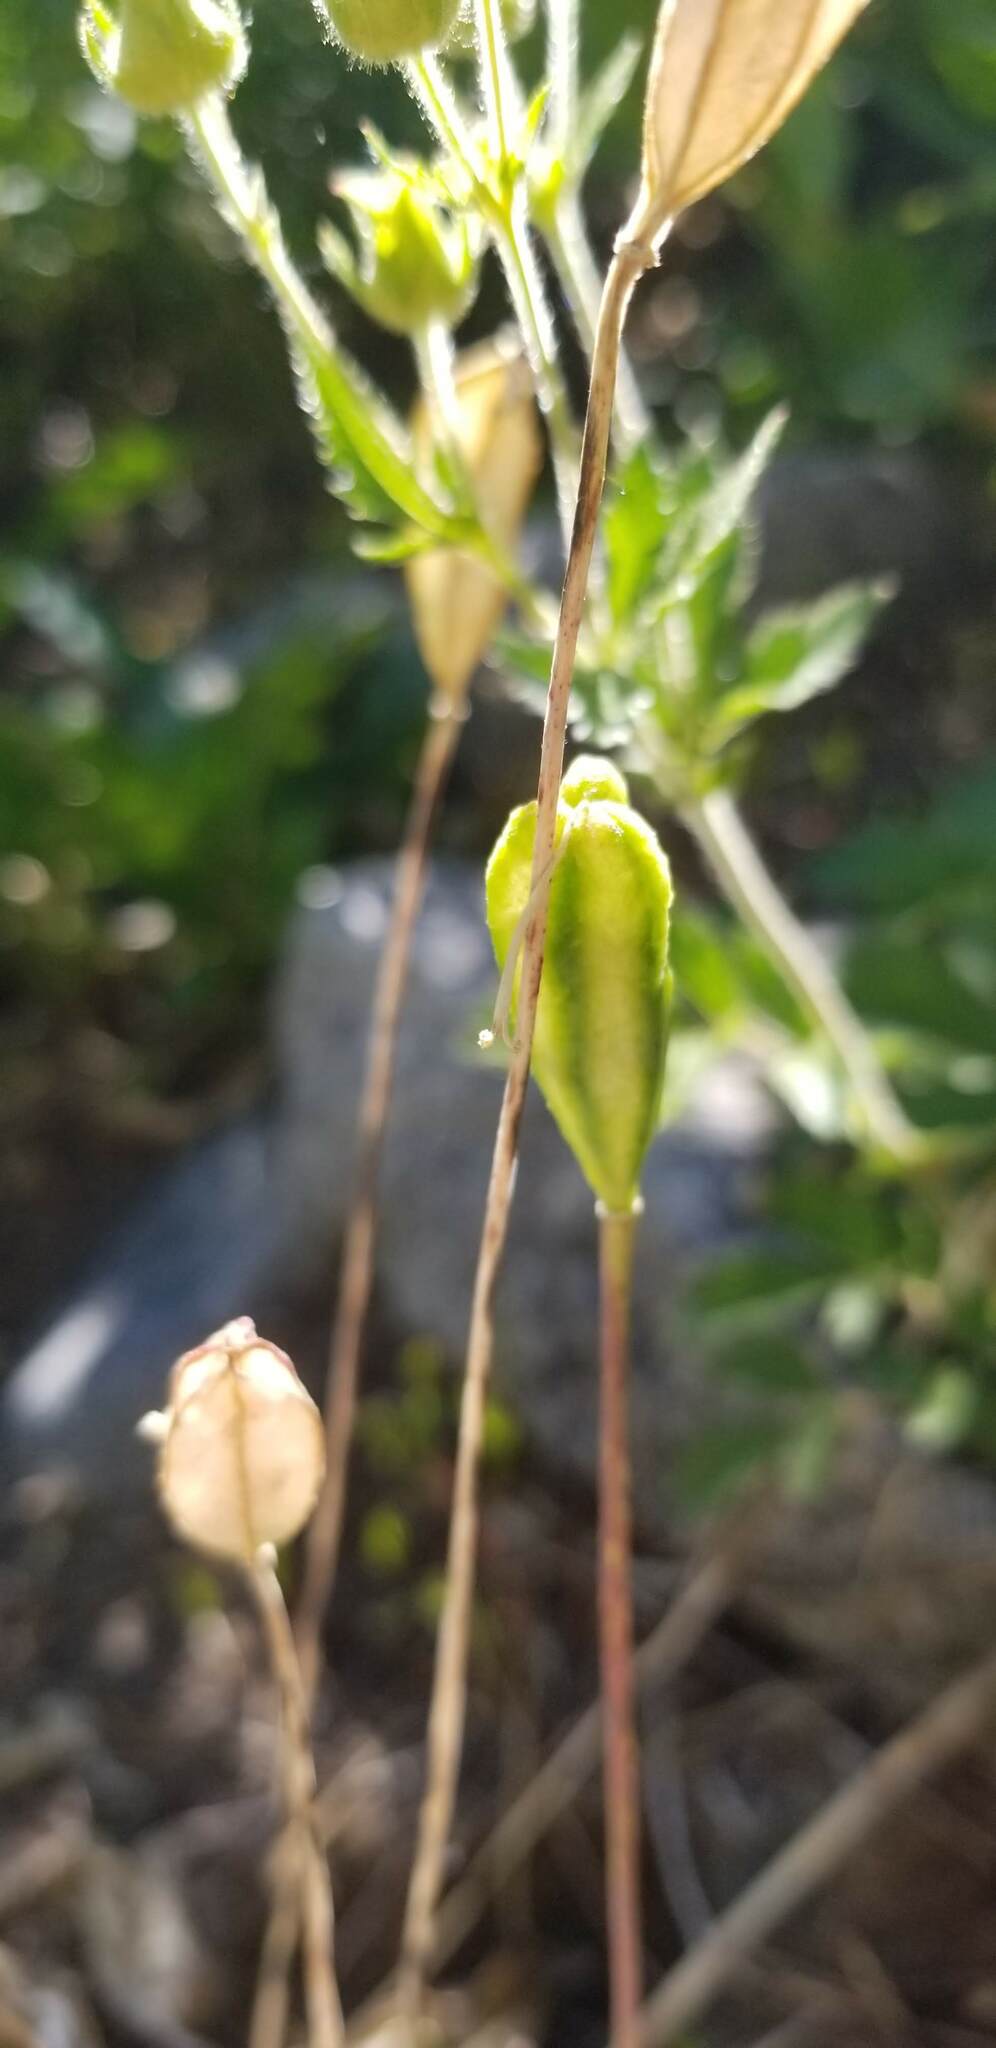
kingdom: Plantae
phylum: Tracheophyta
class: Liliopsida
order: Liliales
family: Liliaceae
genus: Erythronium
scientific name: Erythronium grandiflorum
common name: Avalanche-lily
